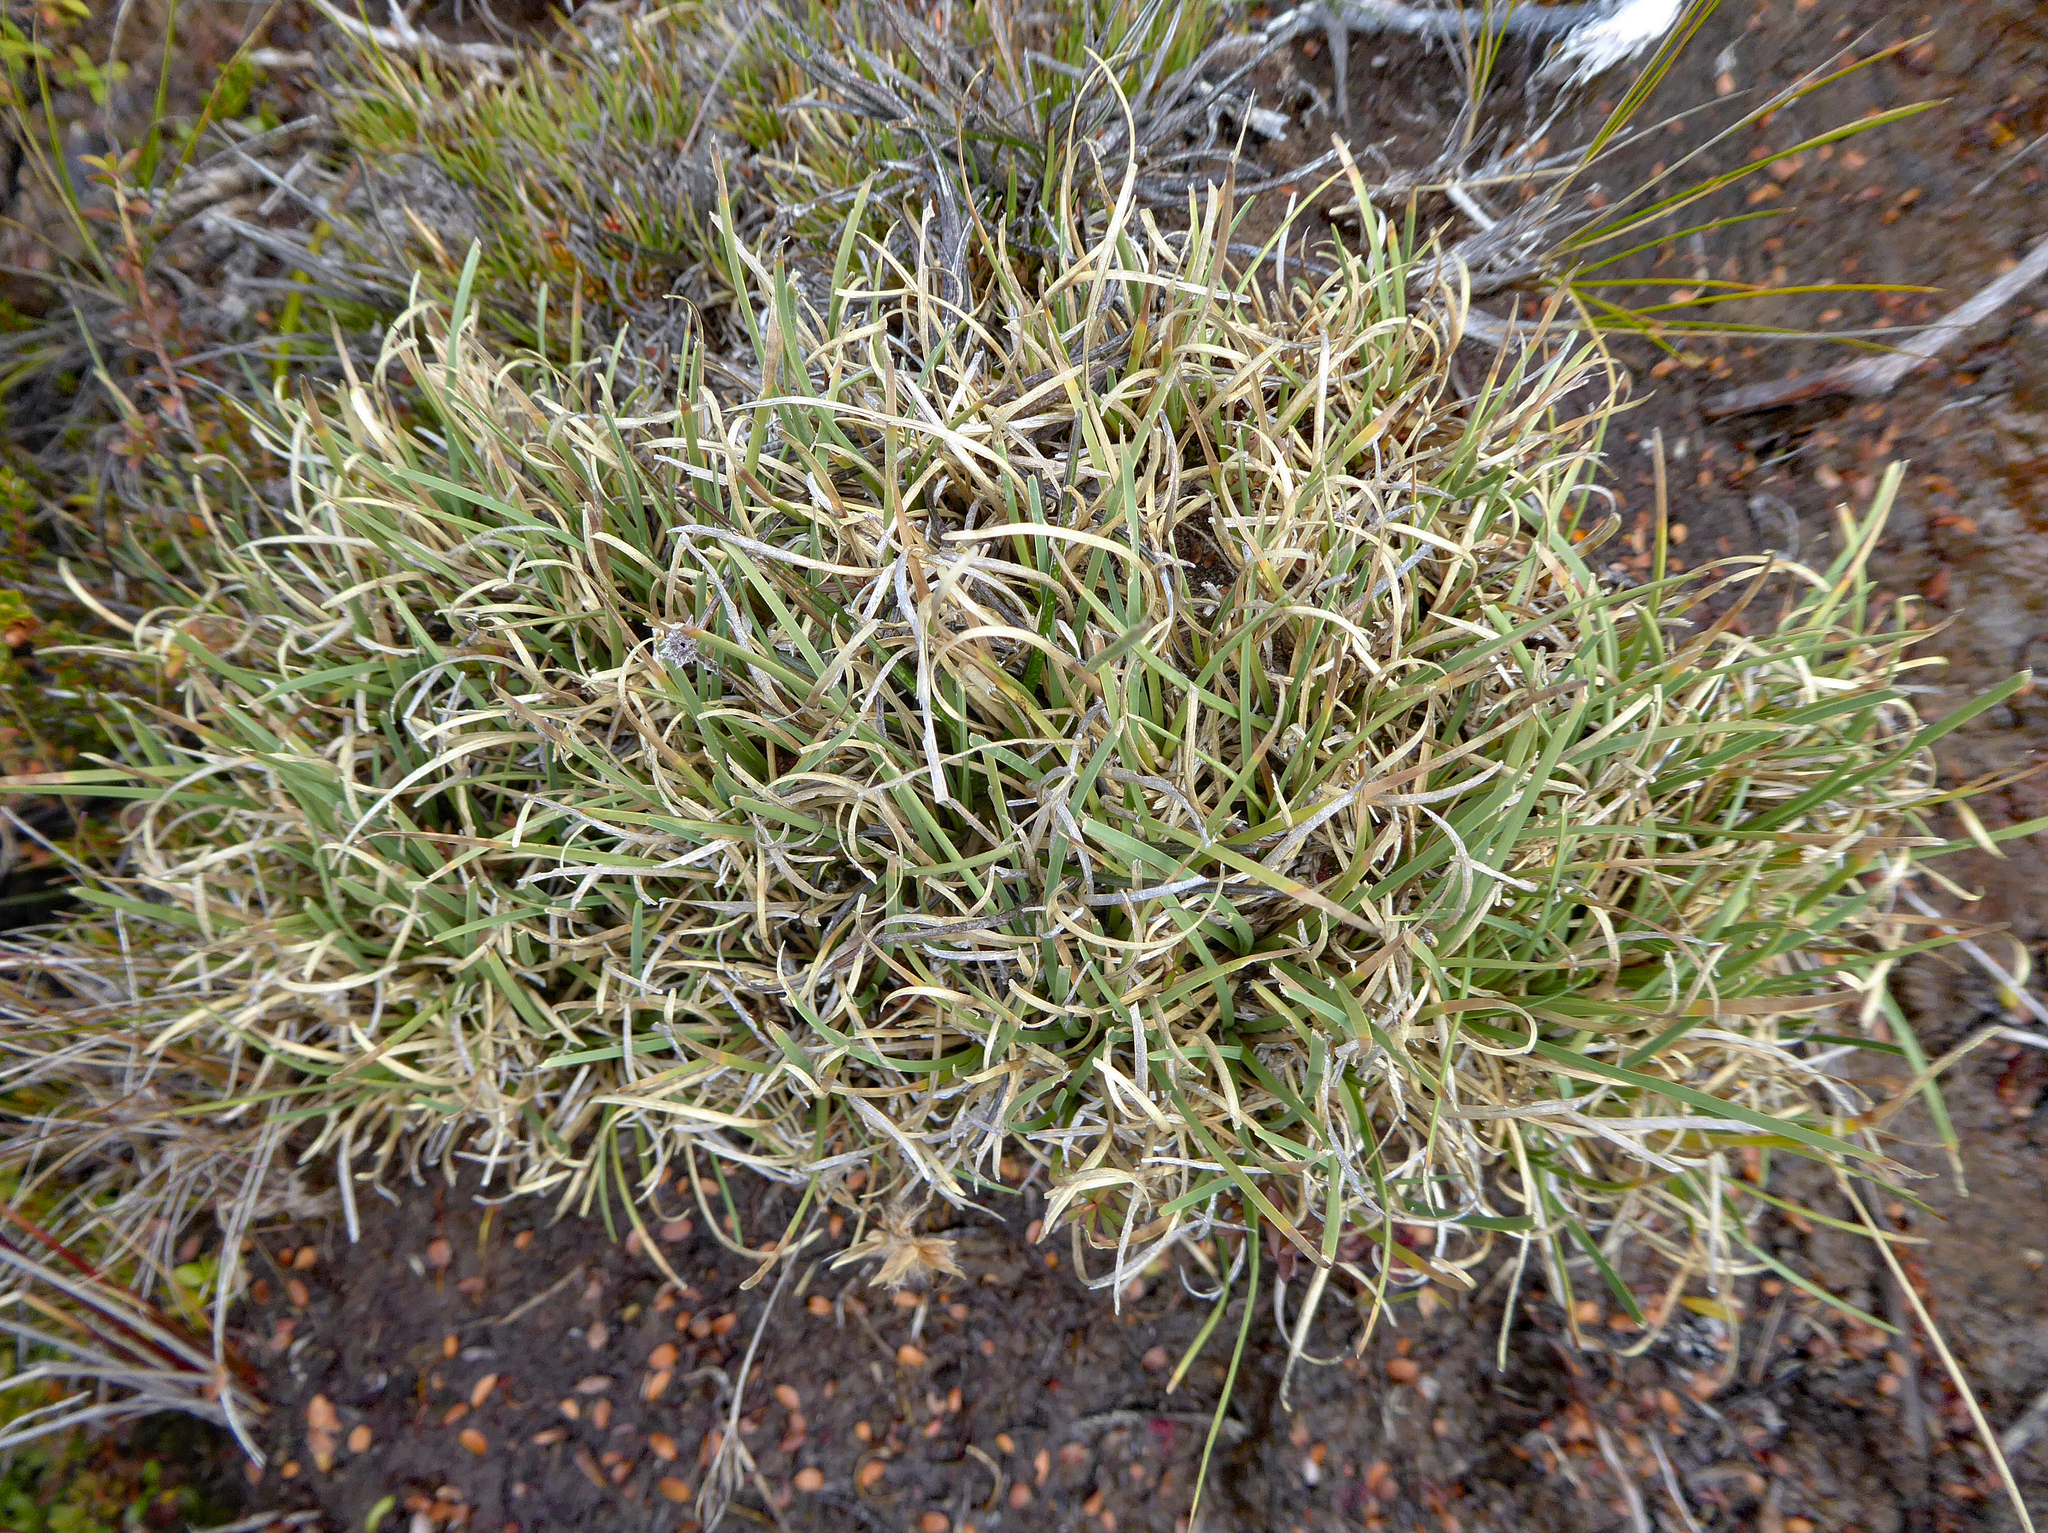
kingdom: Plantae
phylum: Tracheophyta
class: Liliopsida
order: Poales
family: Cyperaceae
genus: Carpha
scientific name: Carpha alpina
